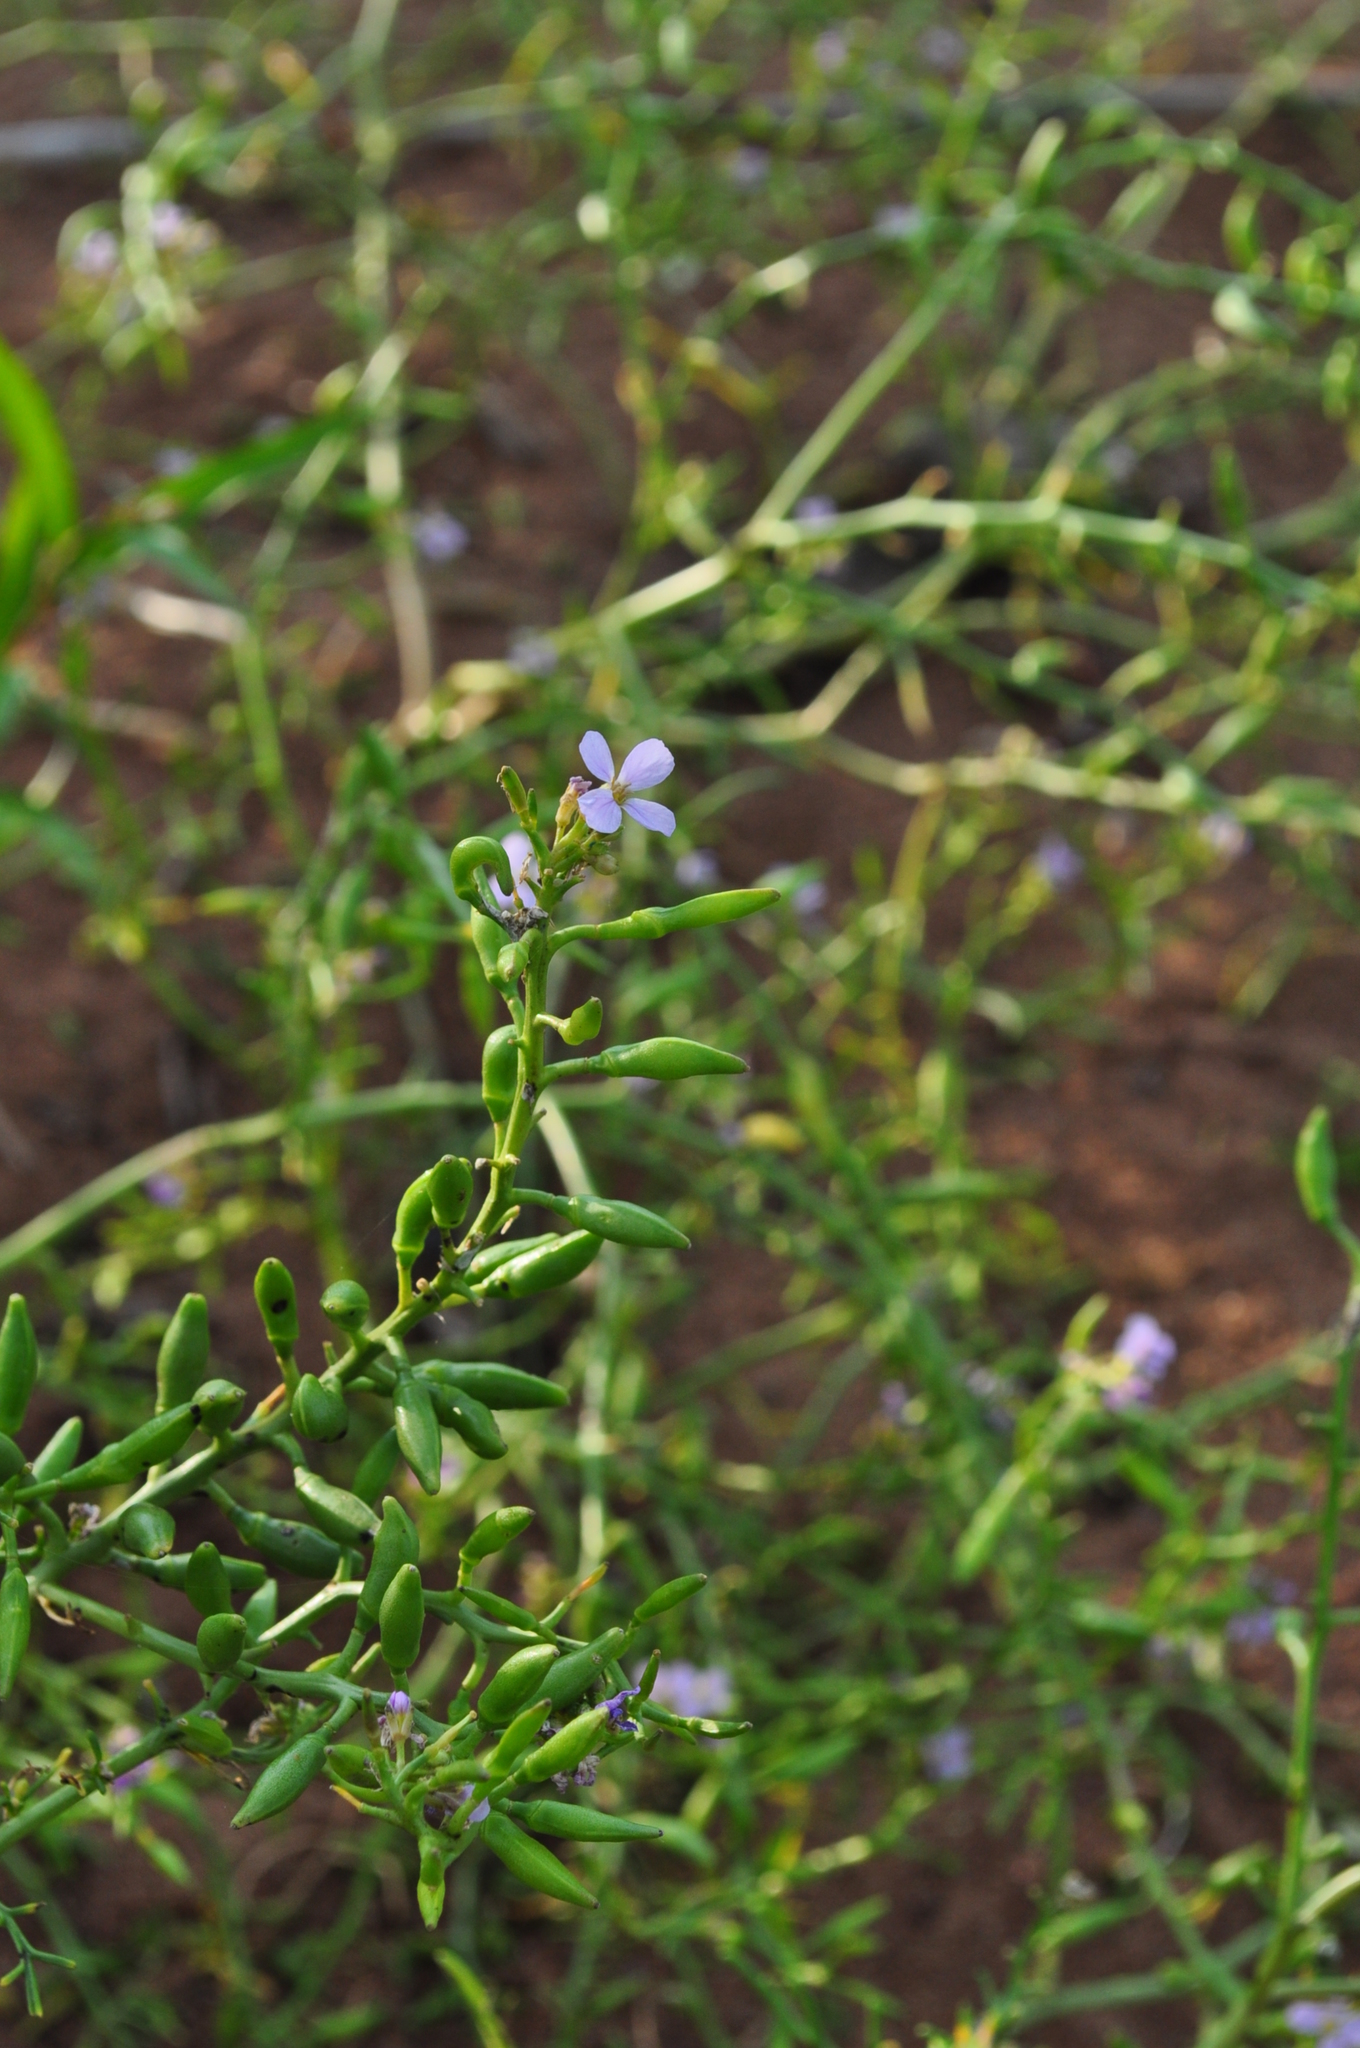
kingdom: Plantae
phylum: Tracheophyta
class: Magnoliopsida
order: Brassicales
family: Brassicaceae
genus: Cakile
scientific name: Cakile maritima
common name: Sea rocket
